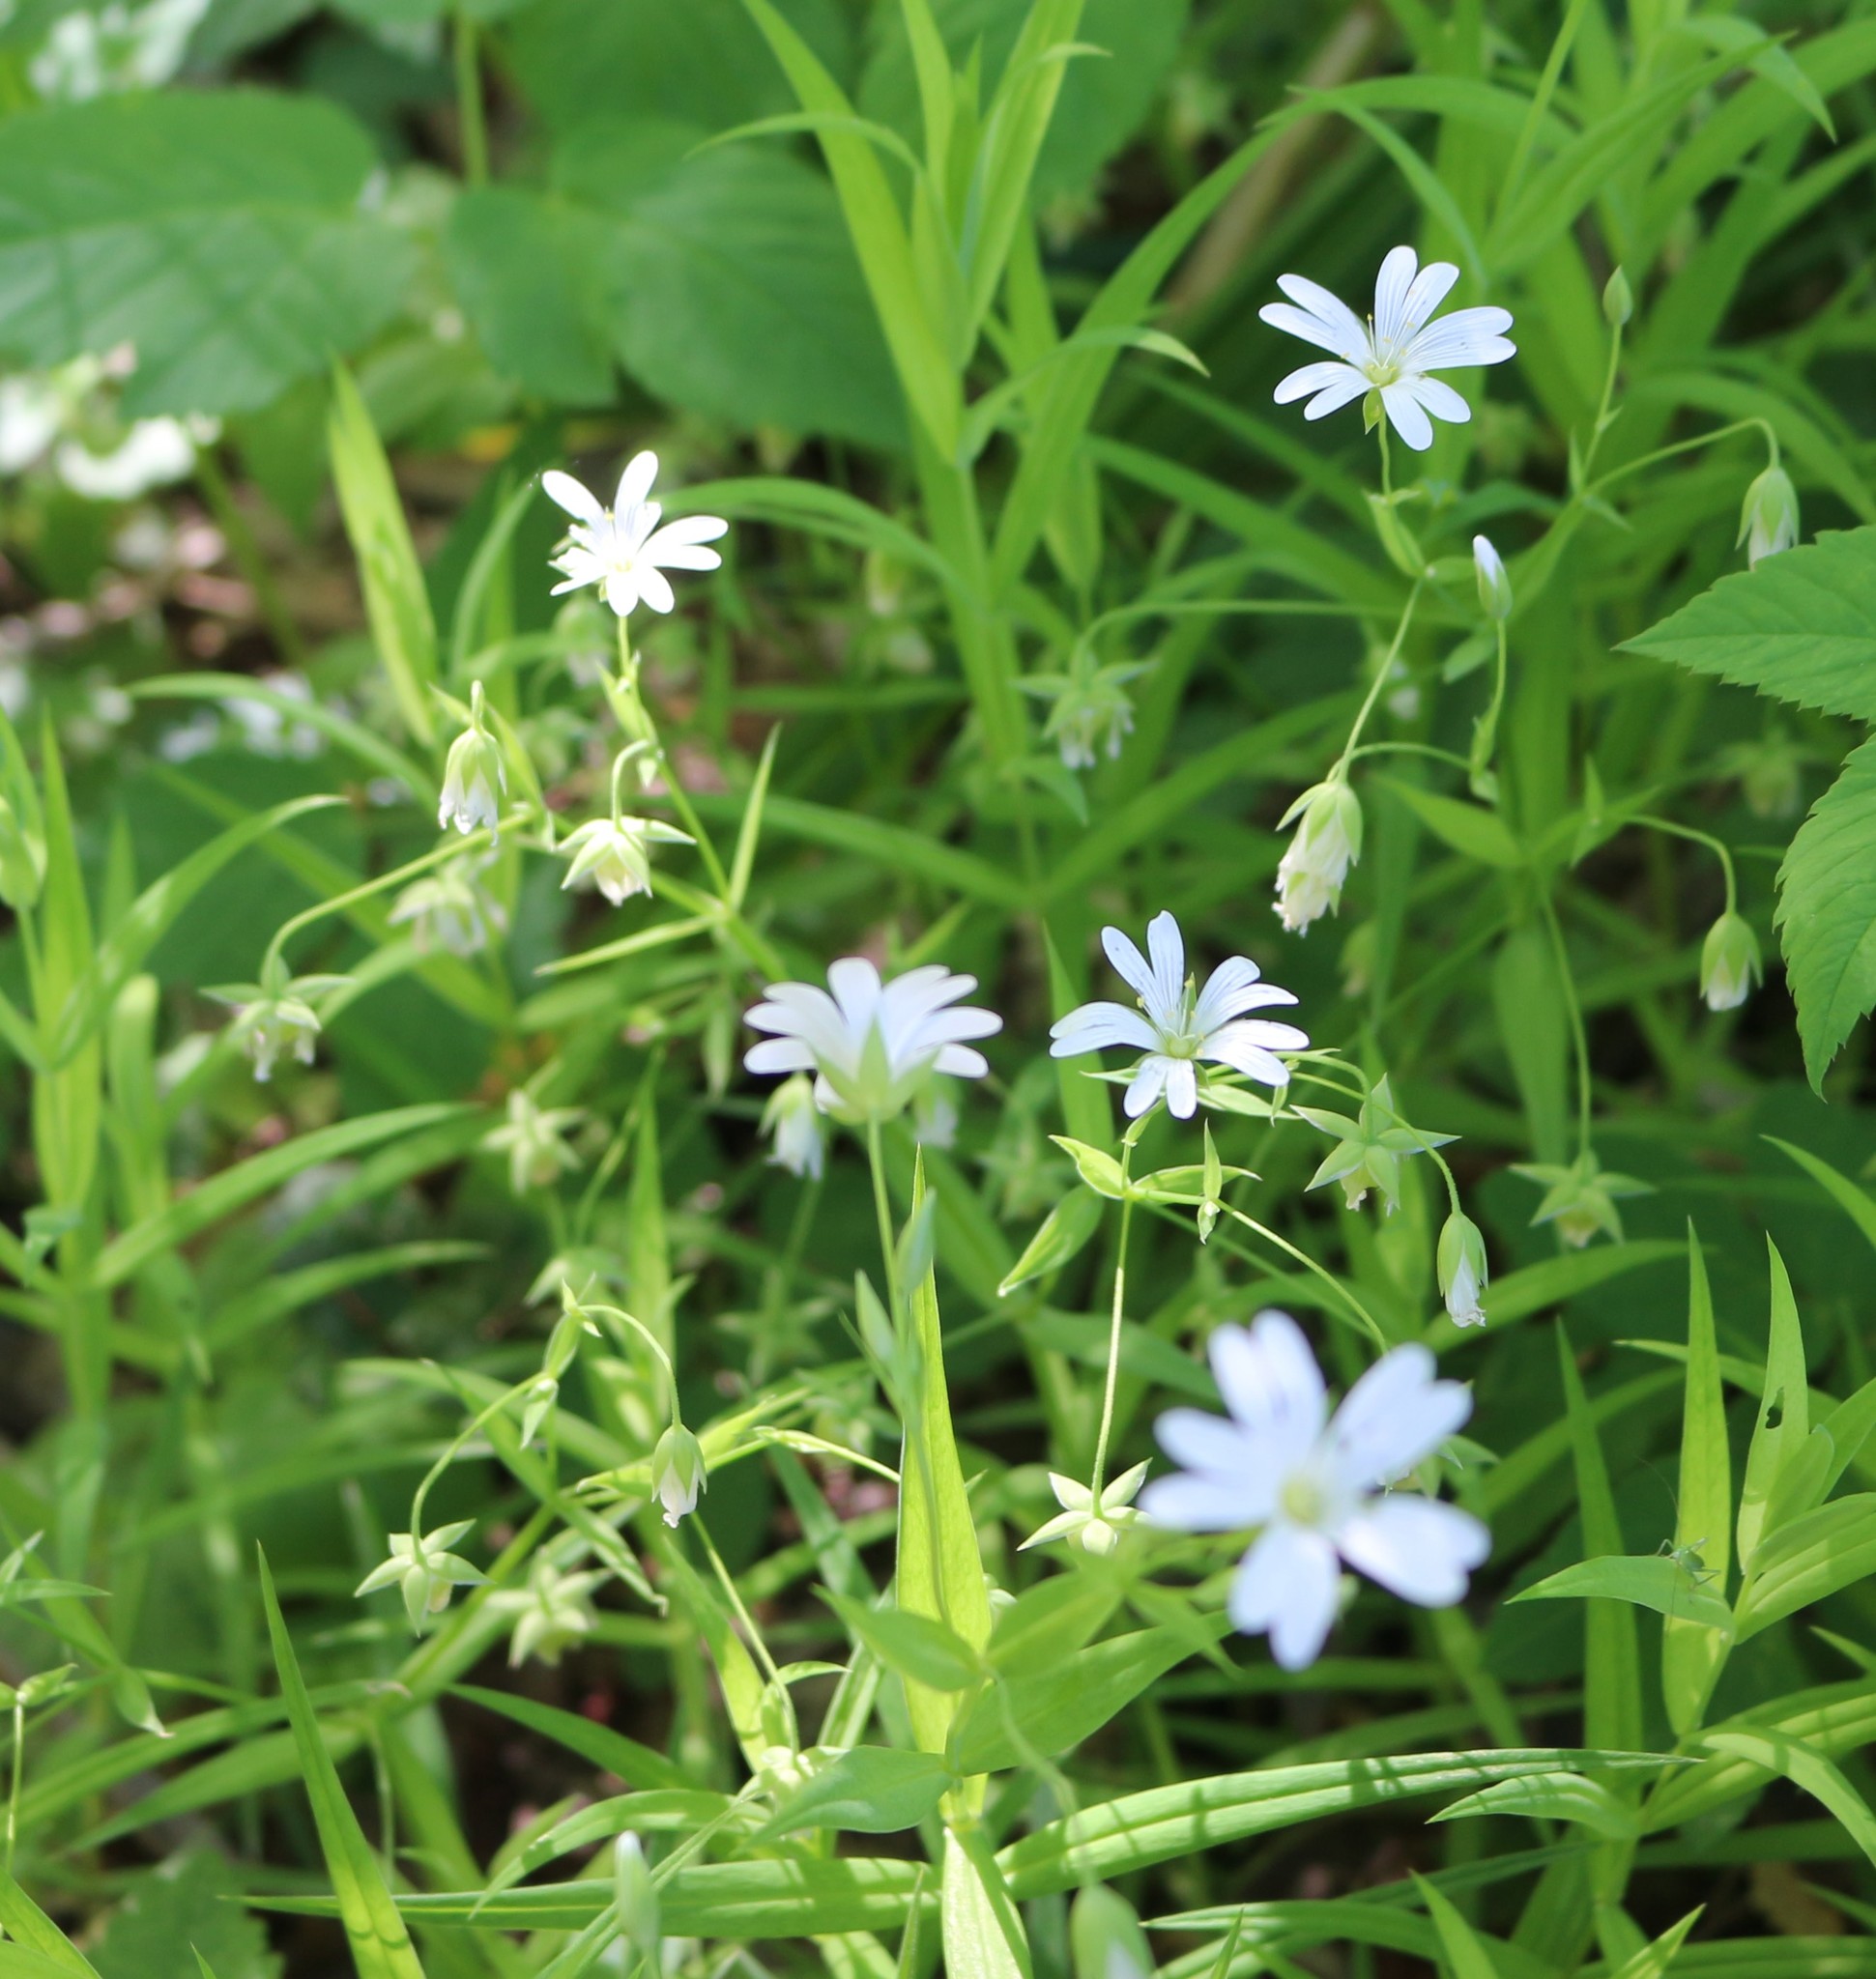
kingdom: Plantae
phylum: Tracheophyta
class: Magnoliopsida
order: Caryophyllales
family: Caryophyllaceae
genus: Rabelera
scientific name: Rabelera holostea
